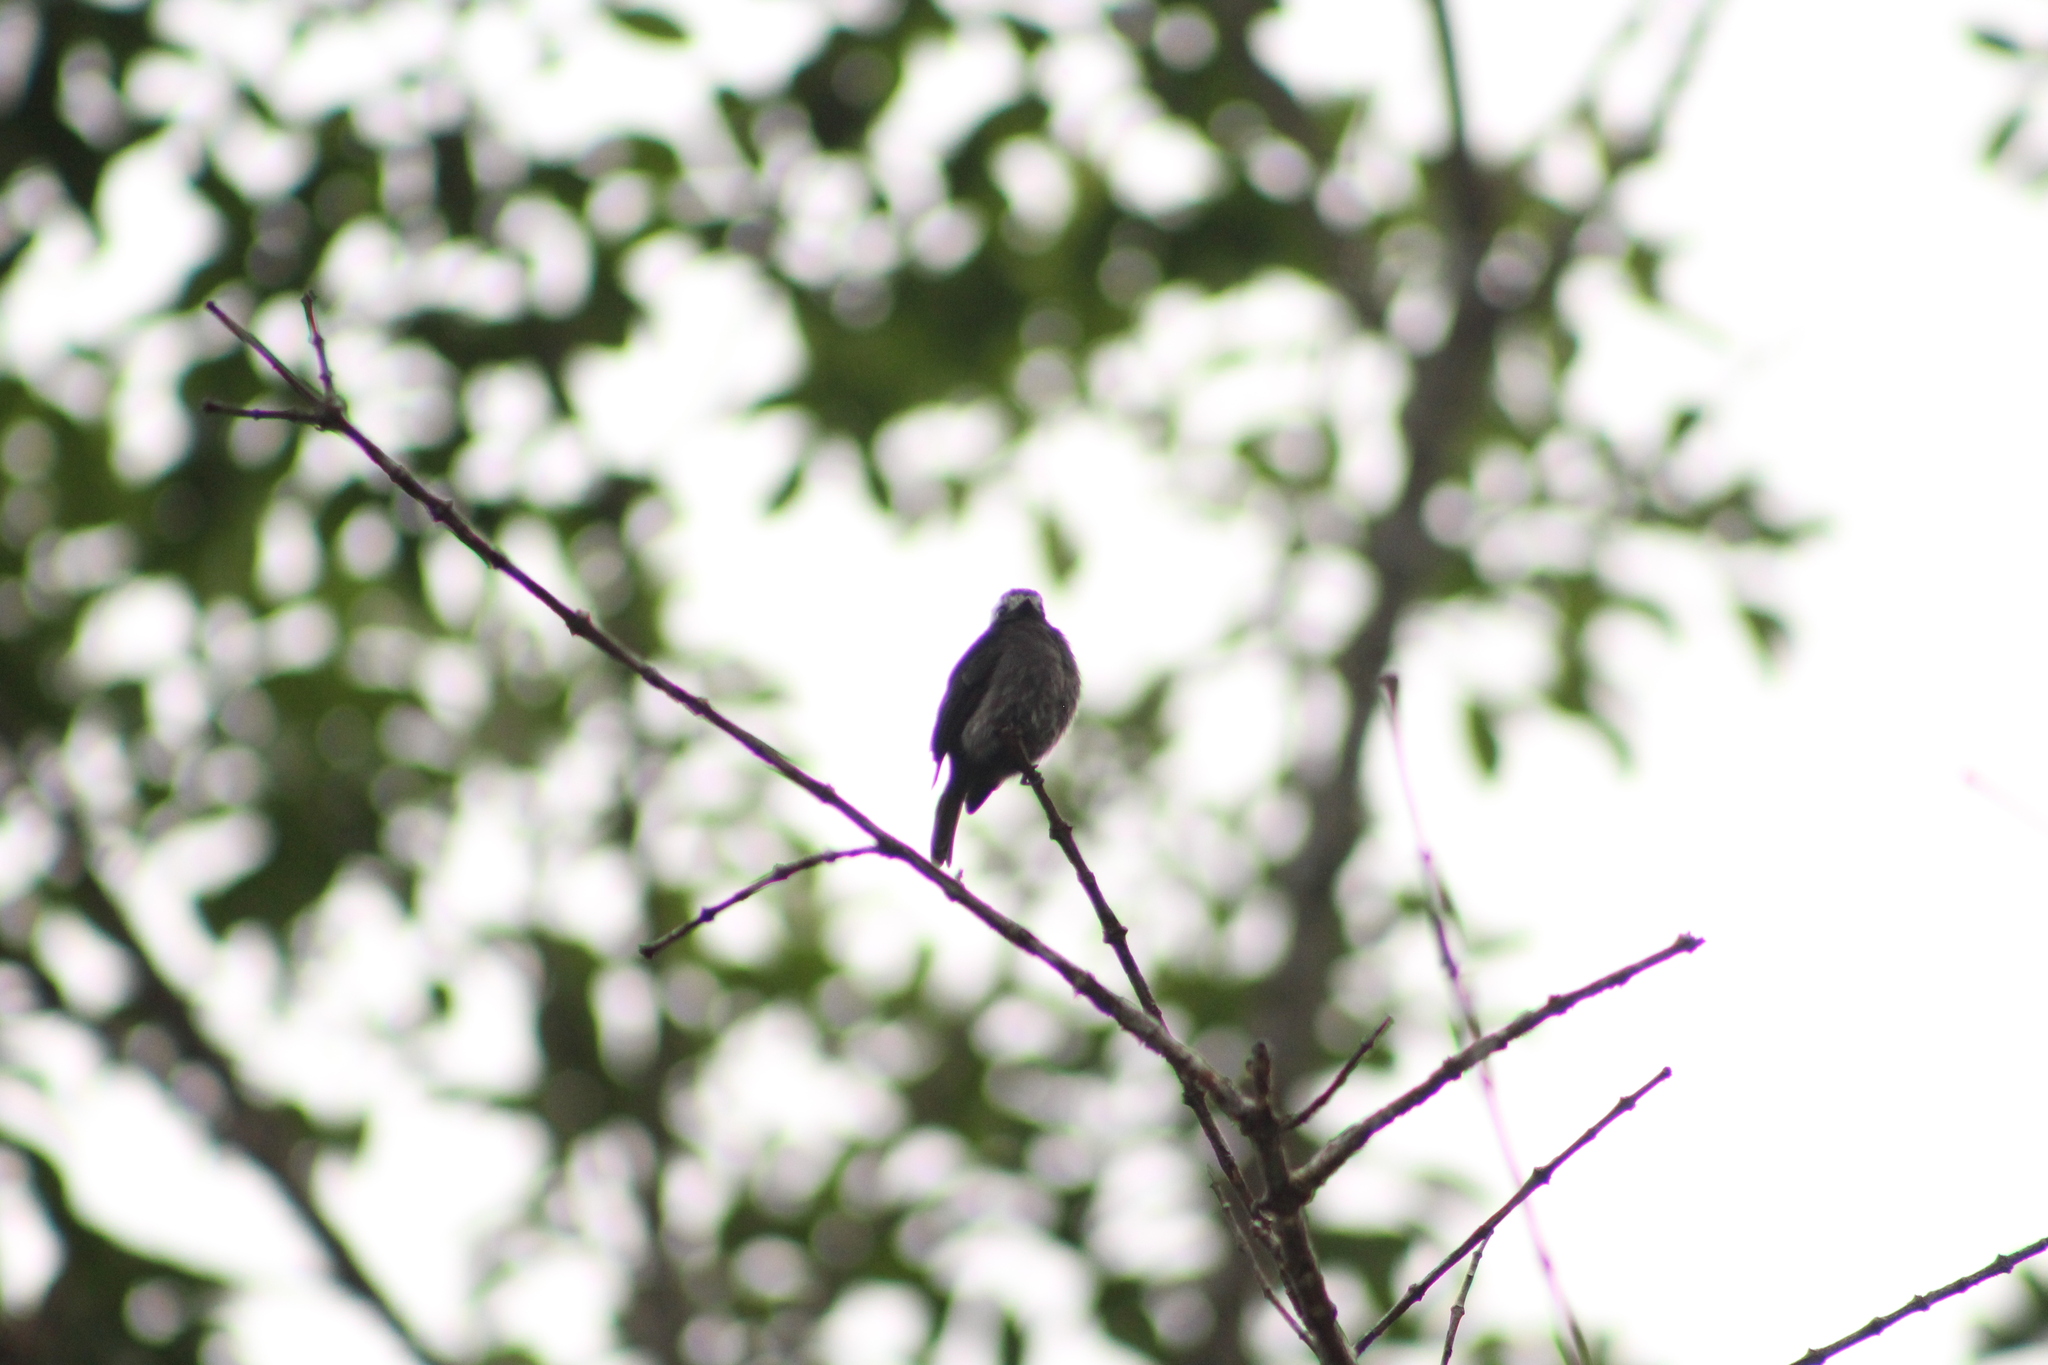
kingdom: Animalia
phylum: Chordata
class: Aves
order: Passeriformes
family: Tyrannidae
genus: Colonia
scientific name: Colonia colonus
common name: Long-tailed tyrant
